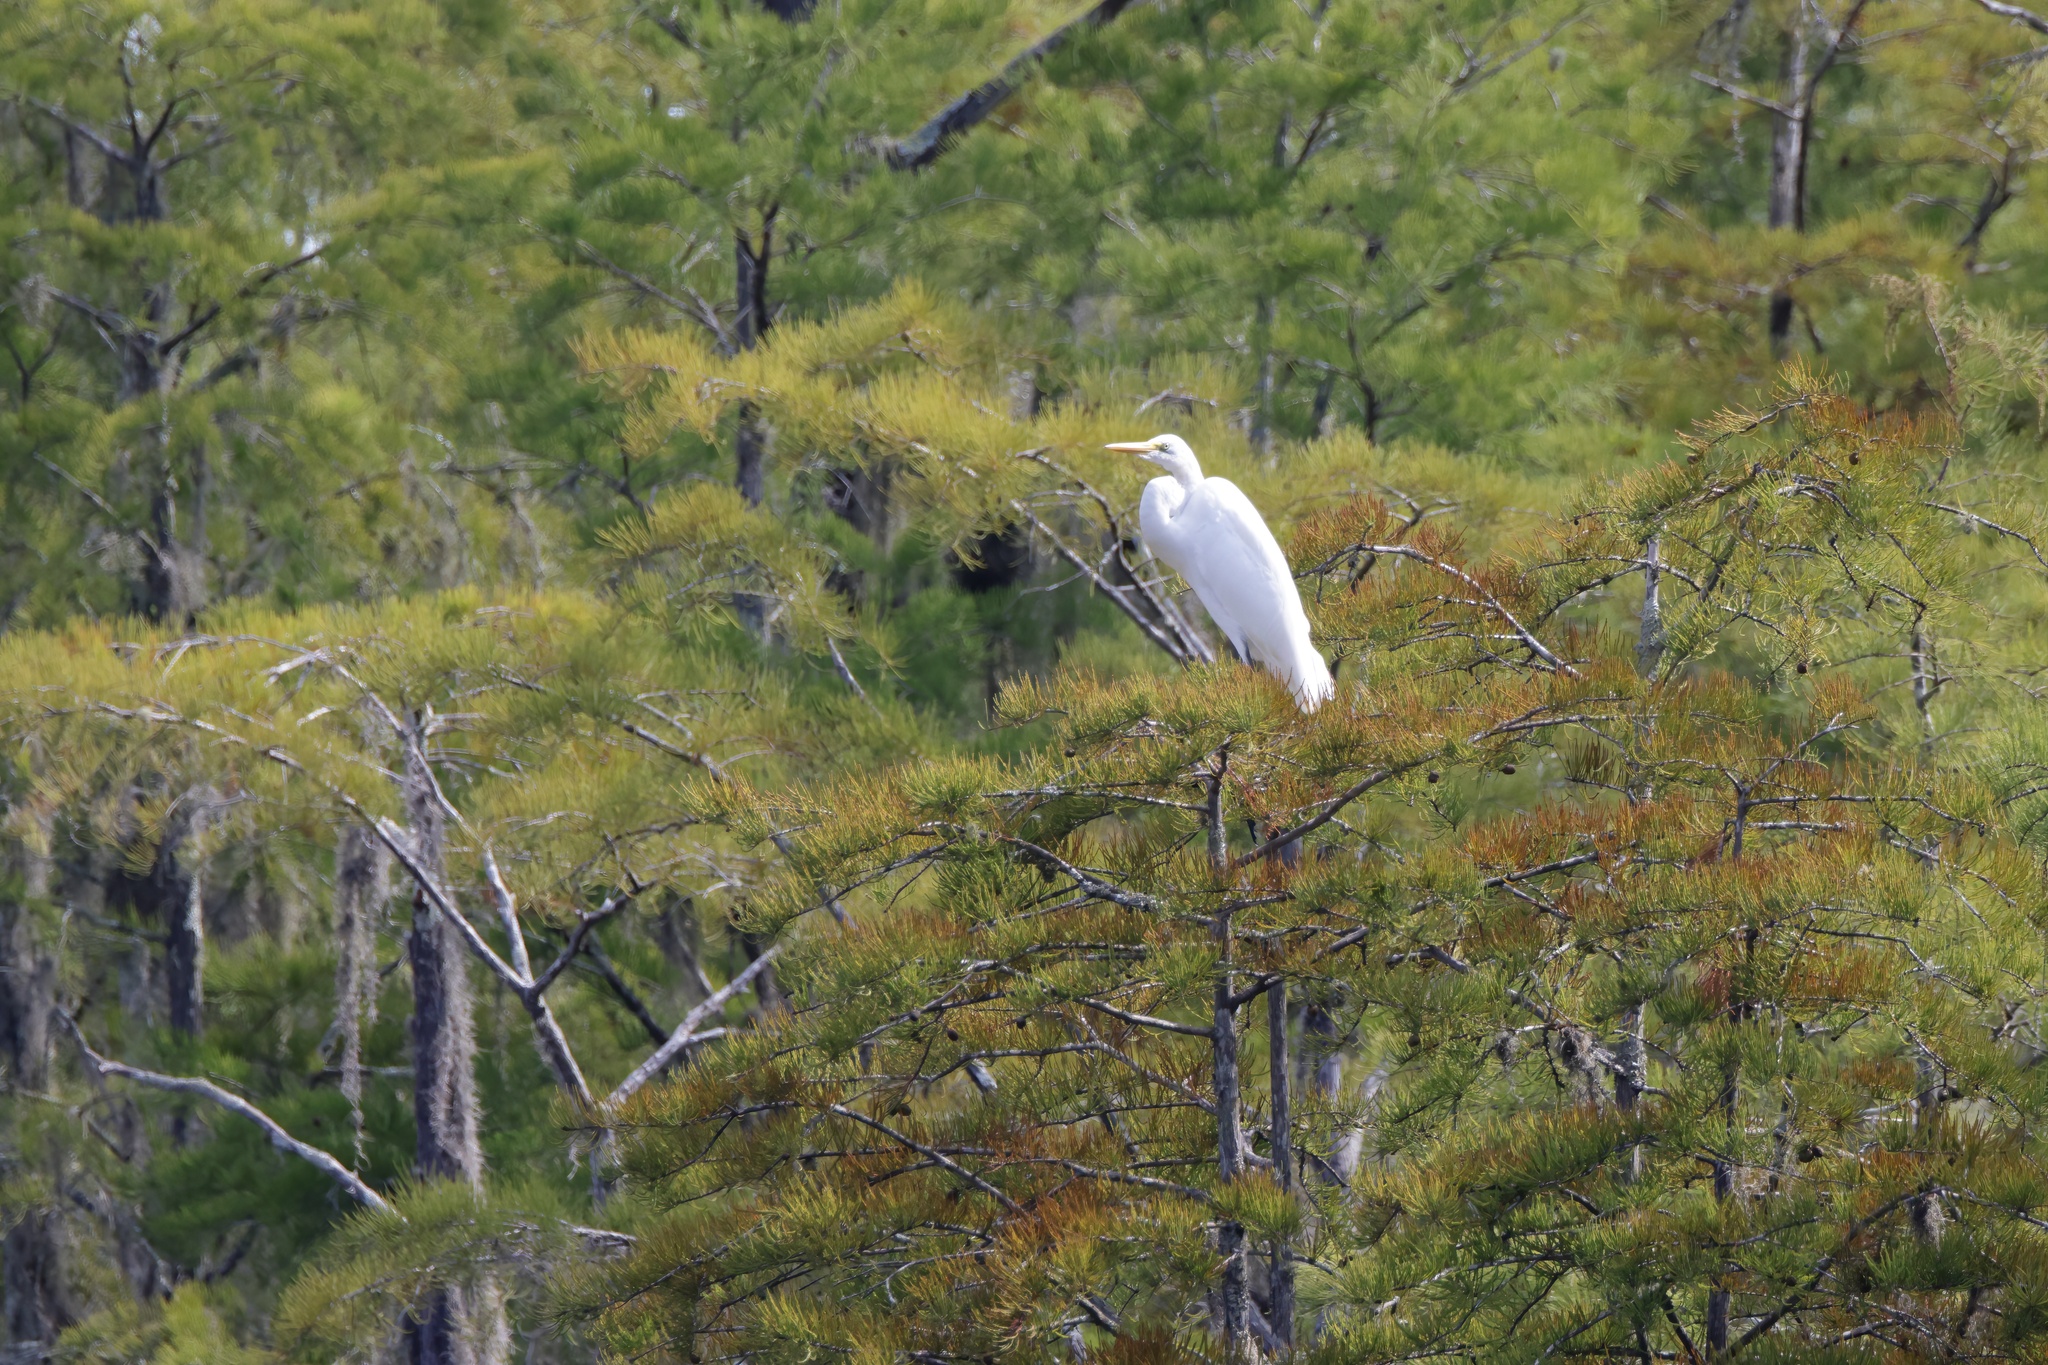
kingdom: Animalia
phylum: Chordata
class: Aves
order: Pelecaniformes
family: Ardeidae
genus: Ardea
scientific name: Ardea alba
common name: Great egret
